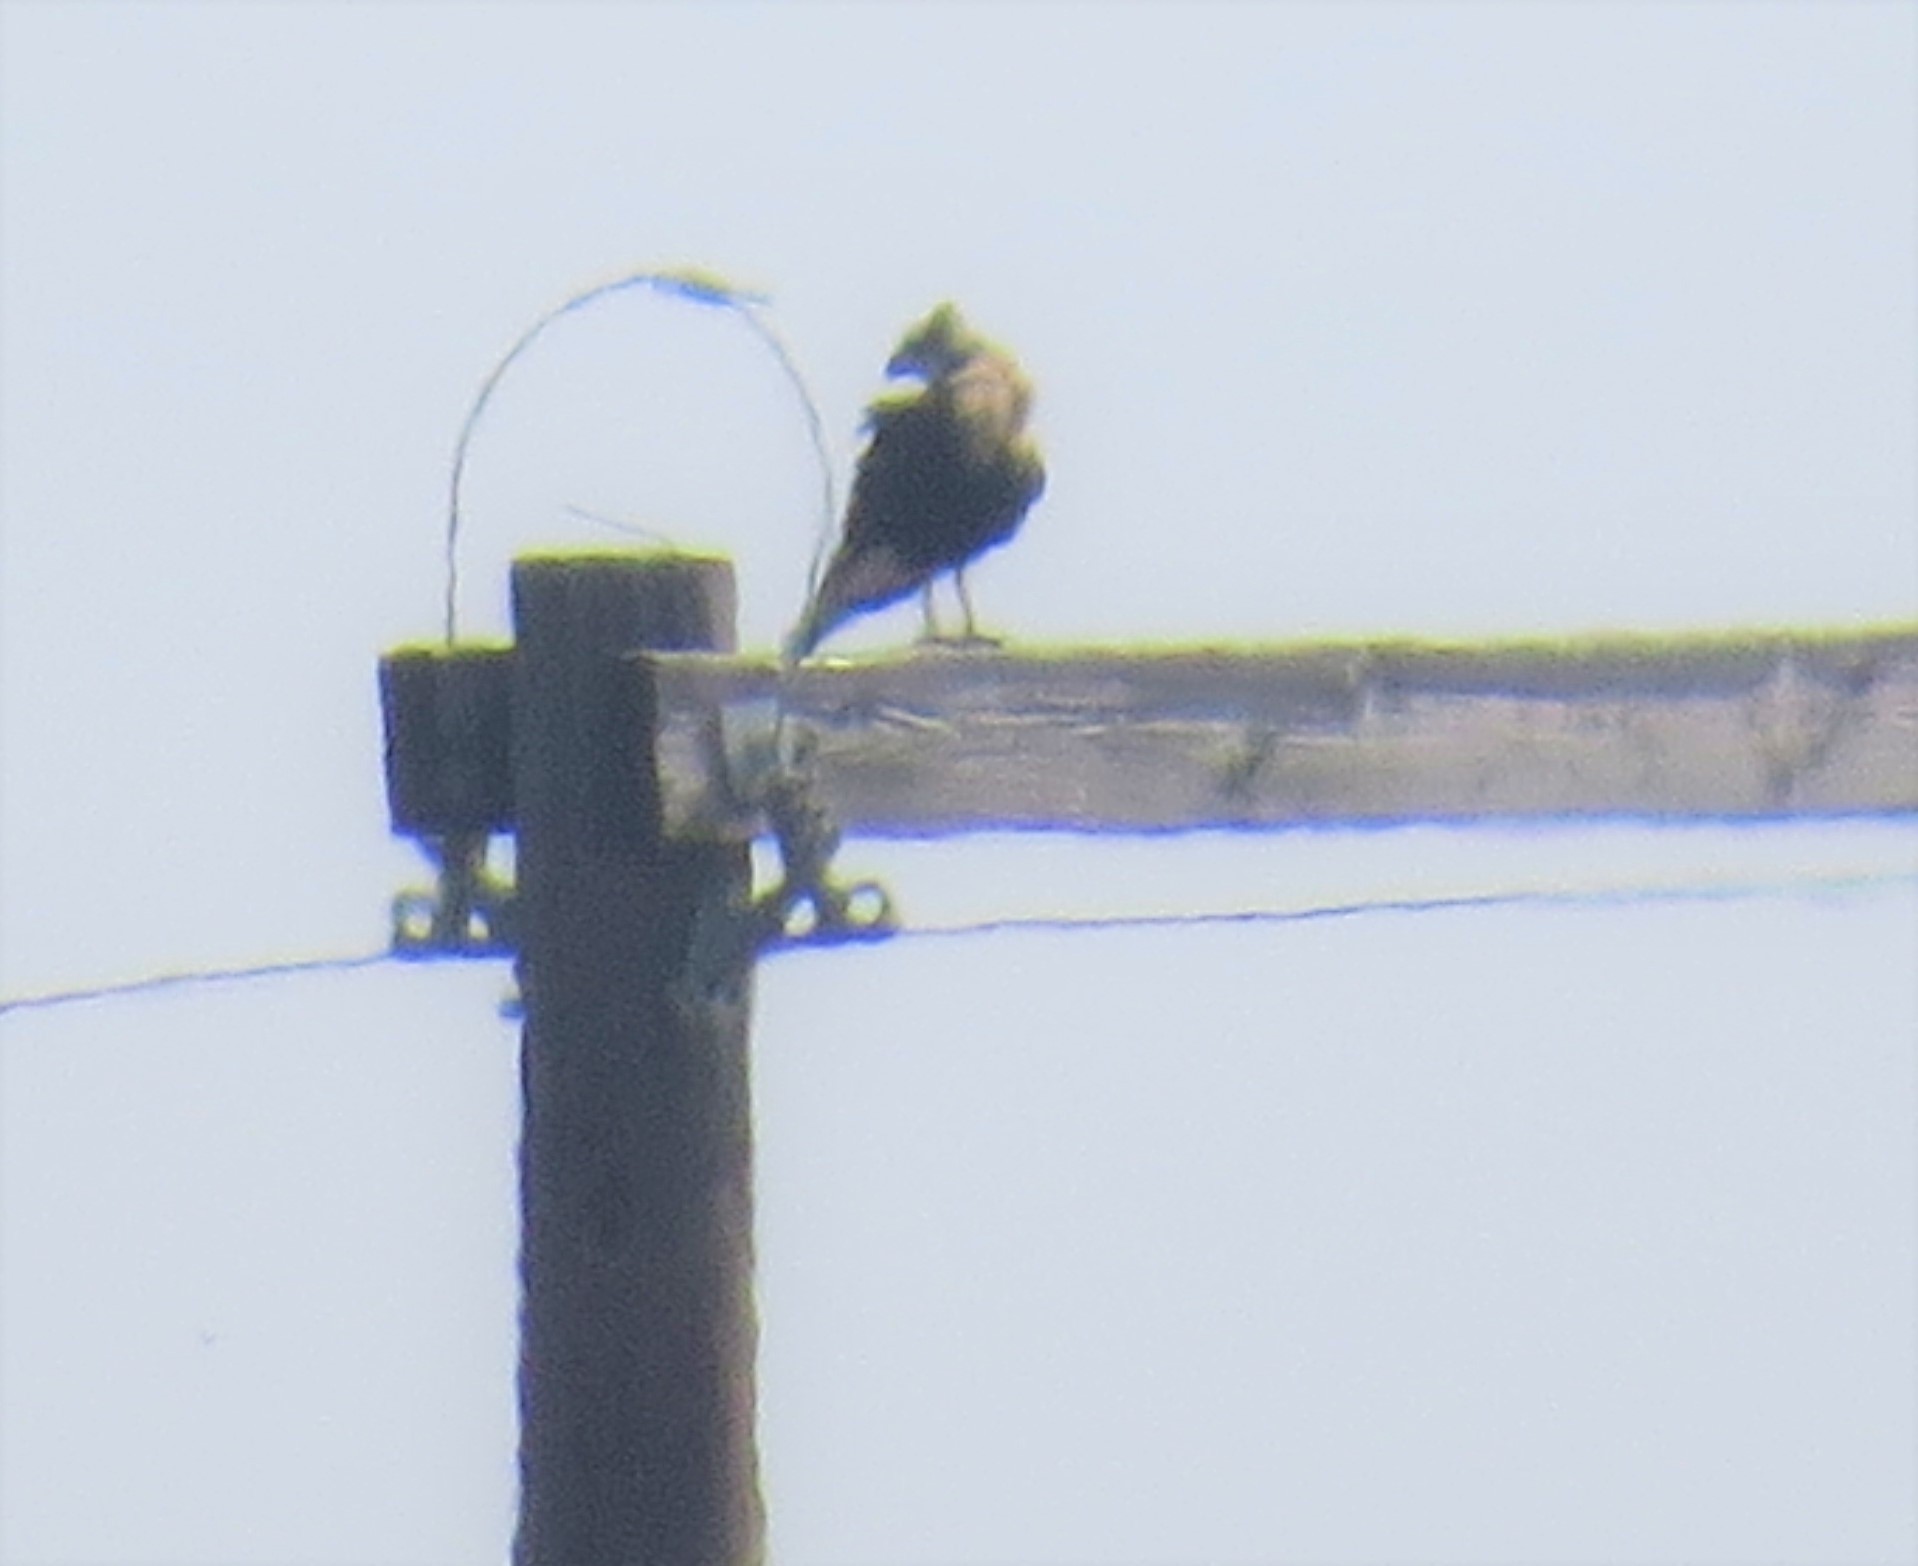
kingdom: Animalia
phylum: Chordata
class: Aves
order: Falconiformes
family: Falconidae
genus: Caracara
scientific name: Caracara plancus
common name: Southern caracara
